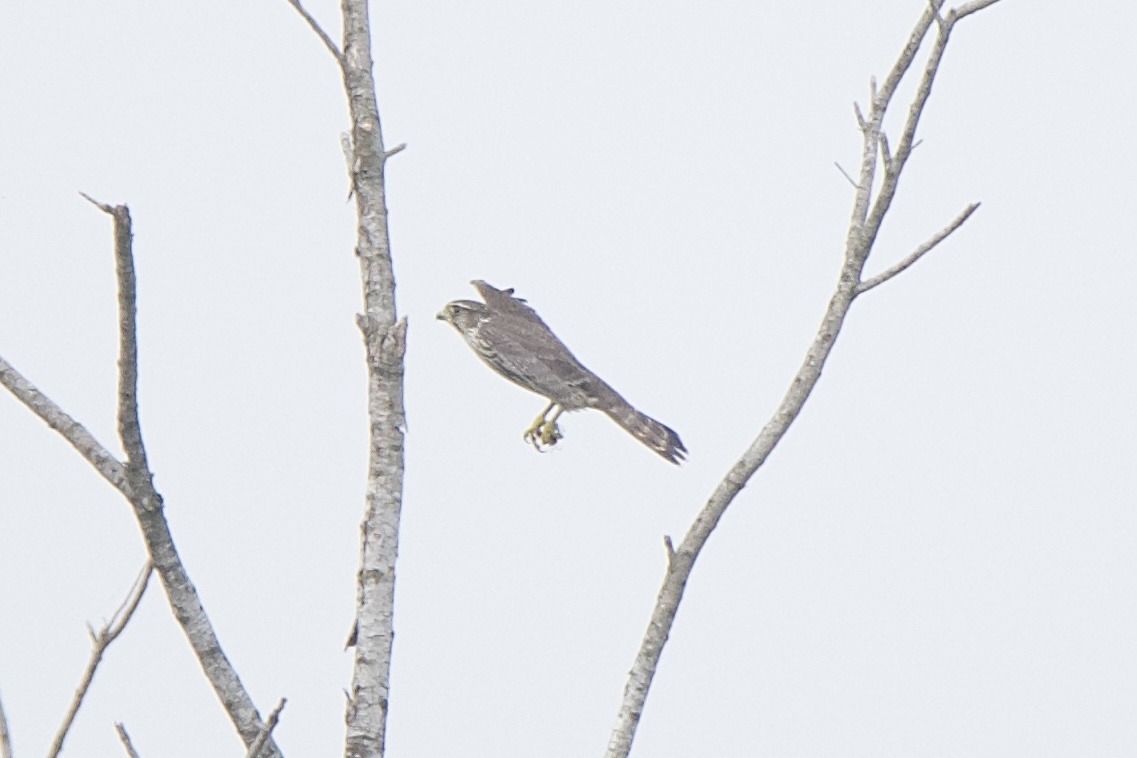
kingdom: Animalia
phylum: Chordata
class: Aves
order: Falconiformes
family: Falconidae
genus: Falco
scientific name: Falco columbarius
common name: Merlin
